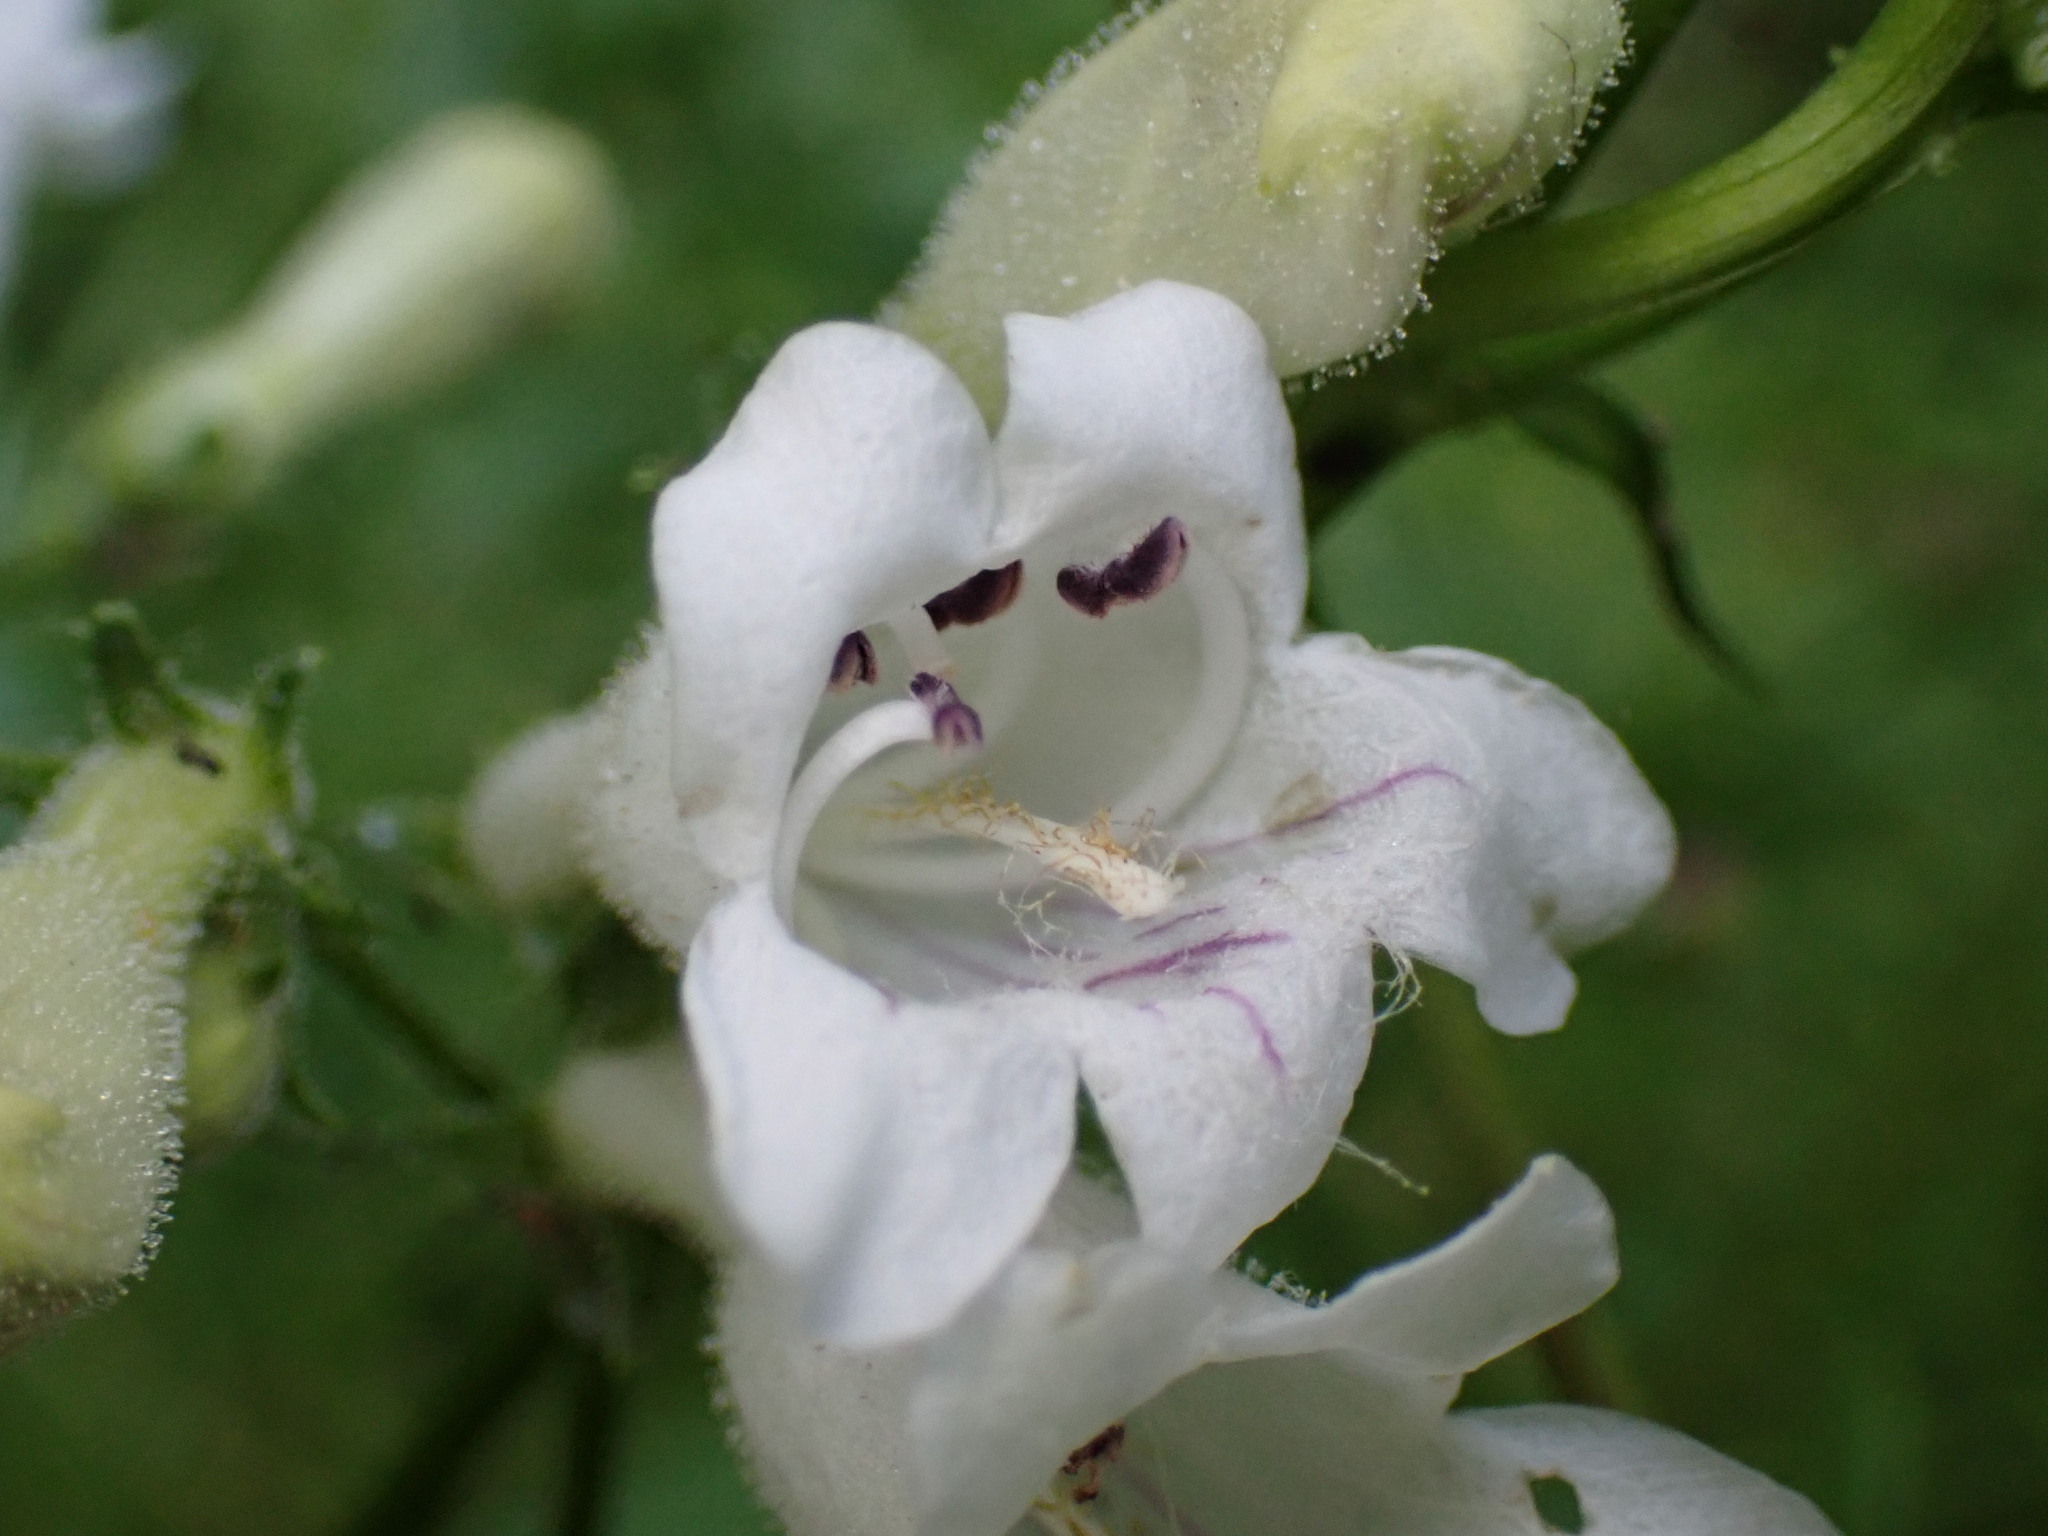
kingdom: Plantae
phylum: Tracheophyta
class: Magnoliopsida
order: Lamiales
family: Plantaginaceae
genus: Penstemon
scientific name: Penstemon digitalis
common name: Foxglove beardtongue
